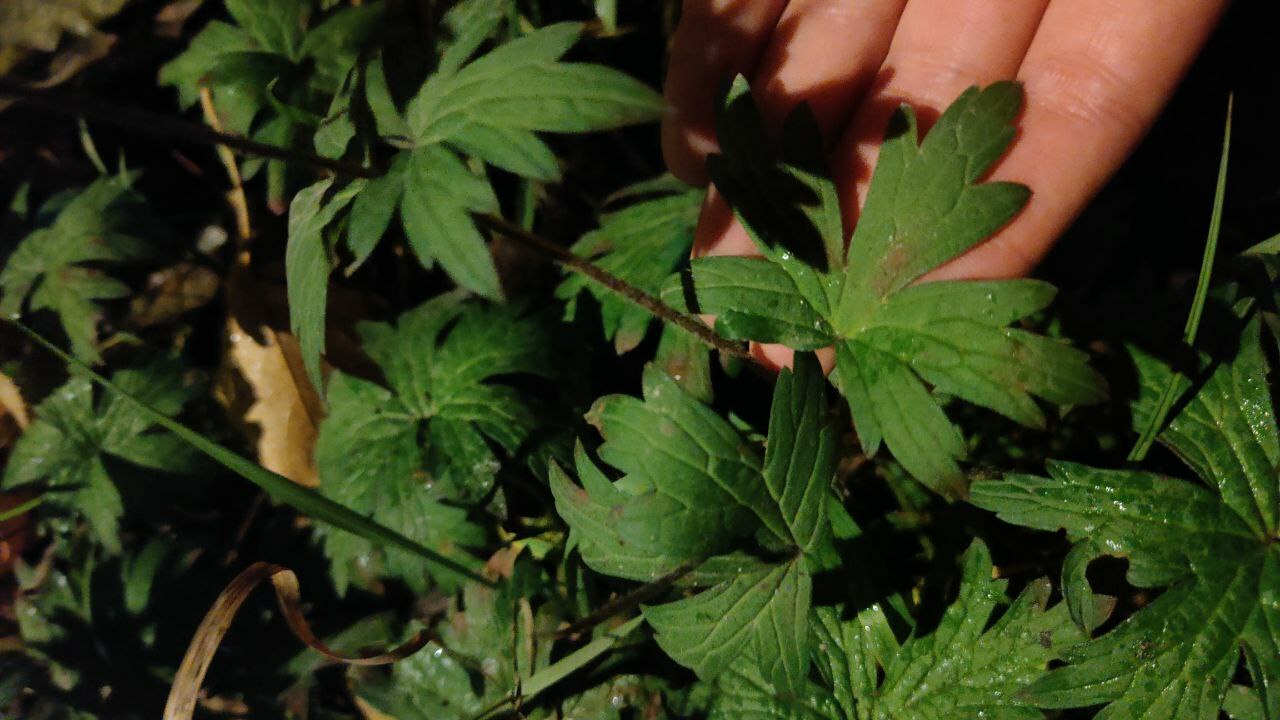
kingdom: Plantae
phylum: Tracheophyta
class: Magnoliopsida
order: Geraniales
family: Geraniaceae
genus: Geranium
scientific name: Geranium palustre
